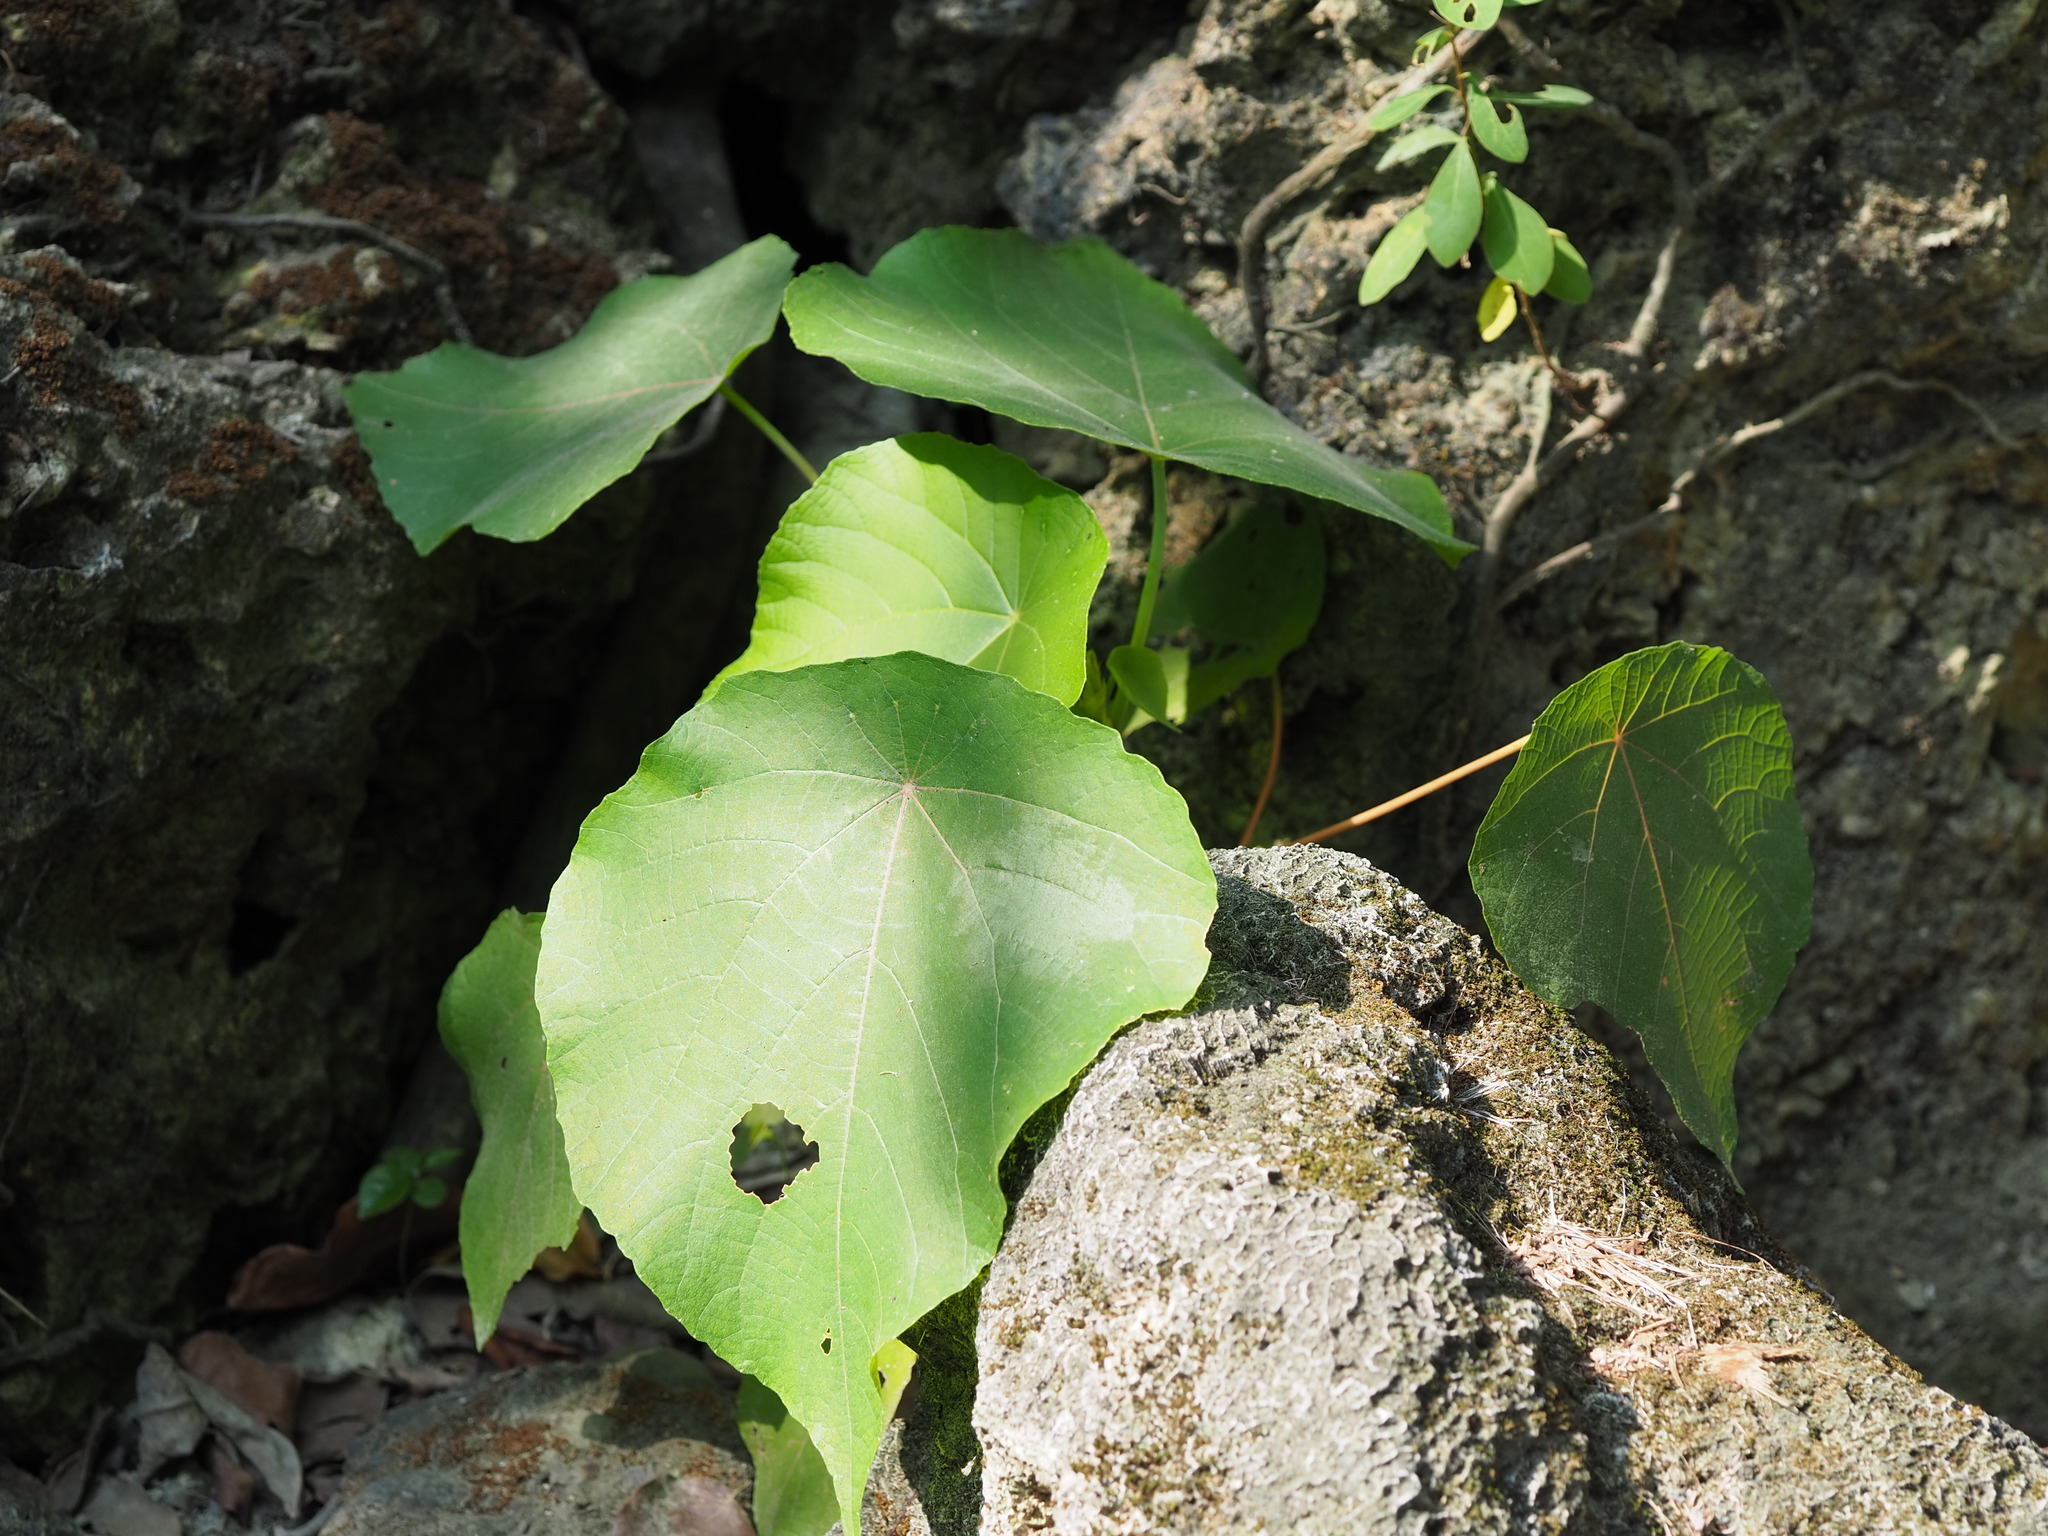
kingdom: Plantae
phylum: Tracheophyta
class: Magnoliopsida
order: Malpighiales
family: Euphorbiaceae
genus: Macaranga
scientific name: Macaranga tanarius
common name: Parasol leaf tree
